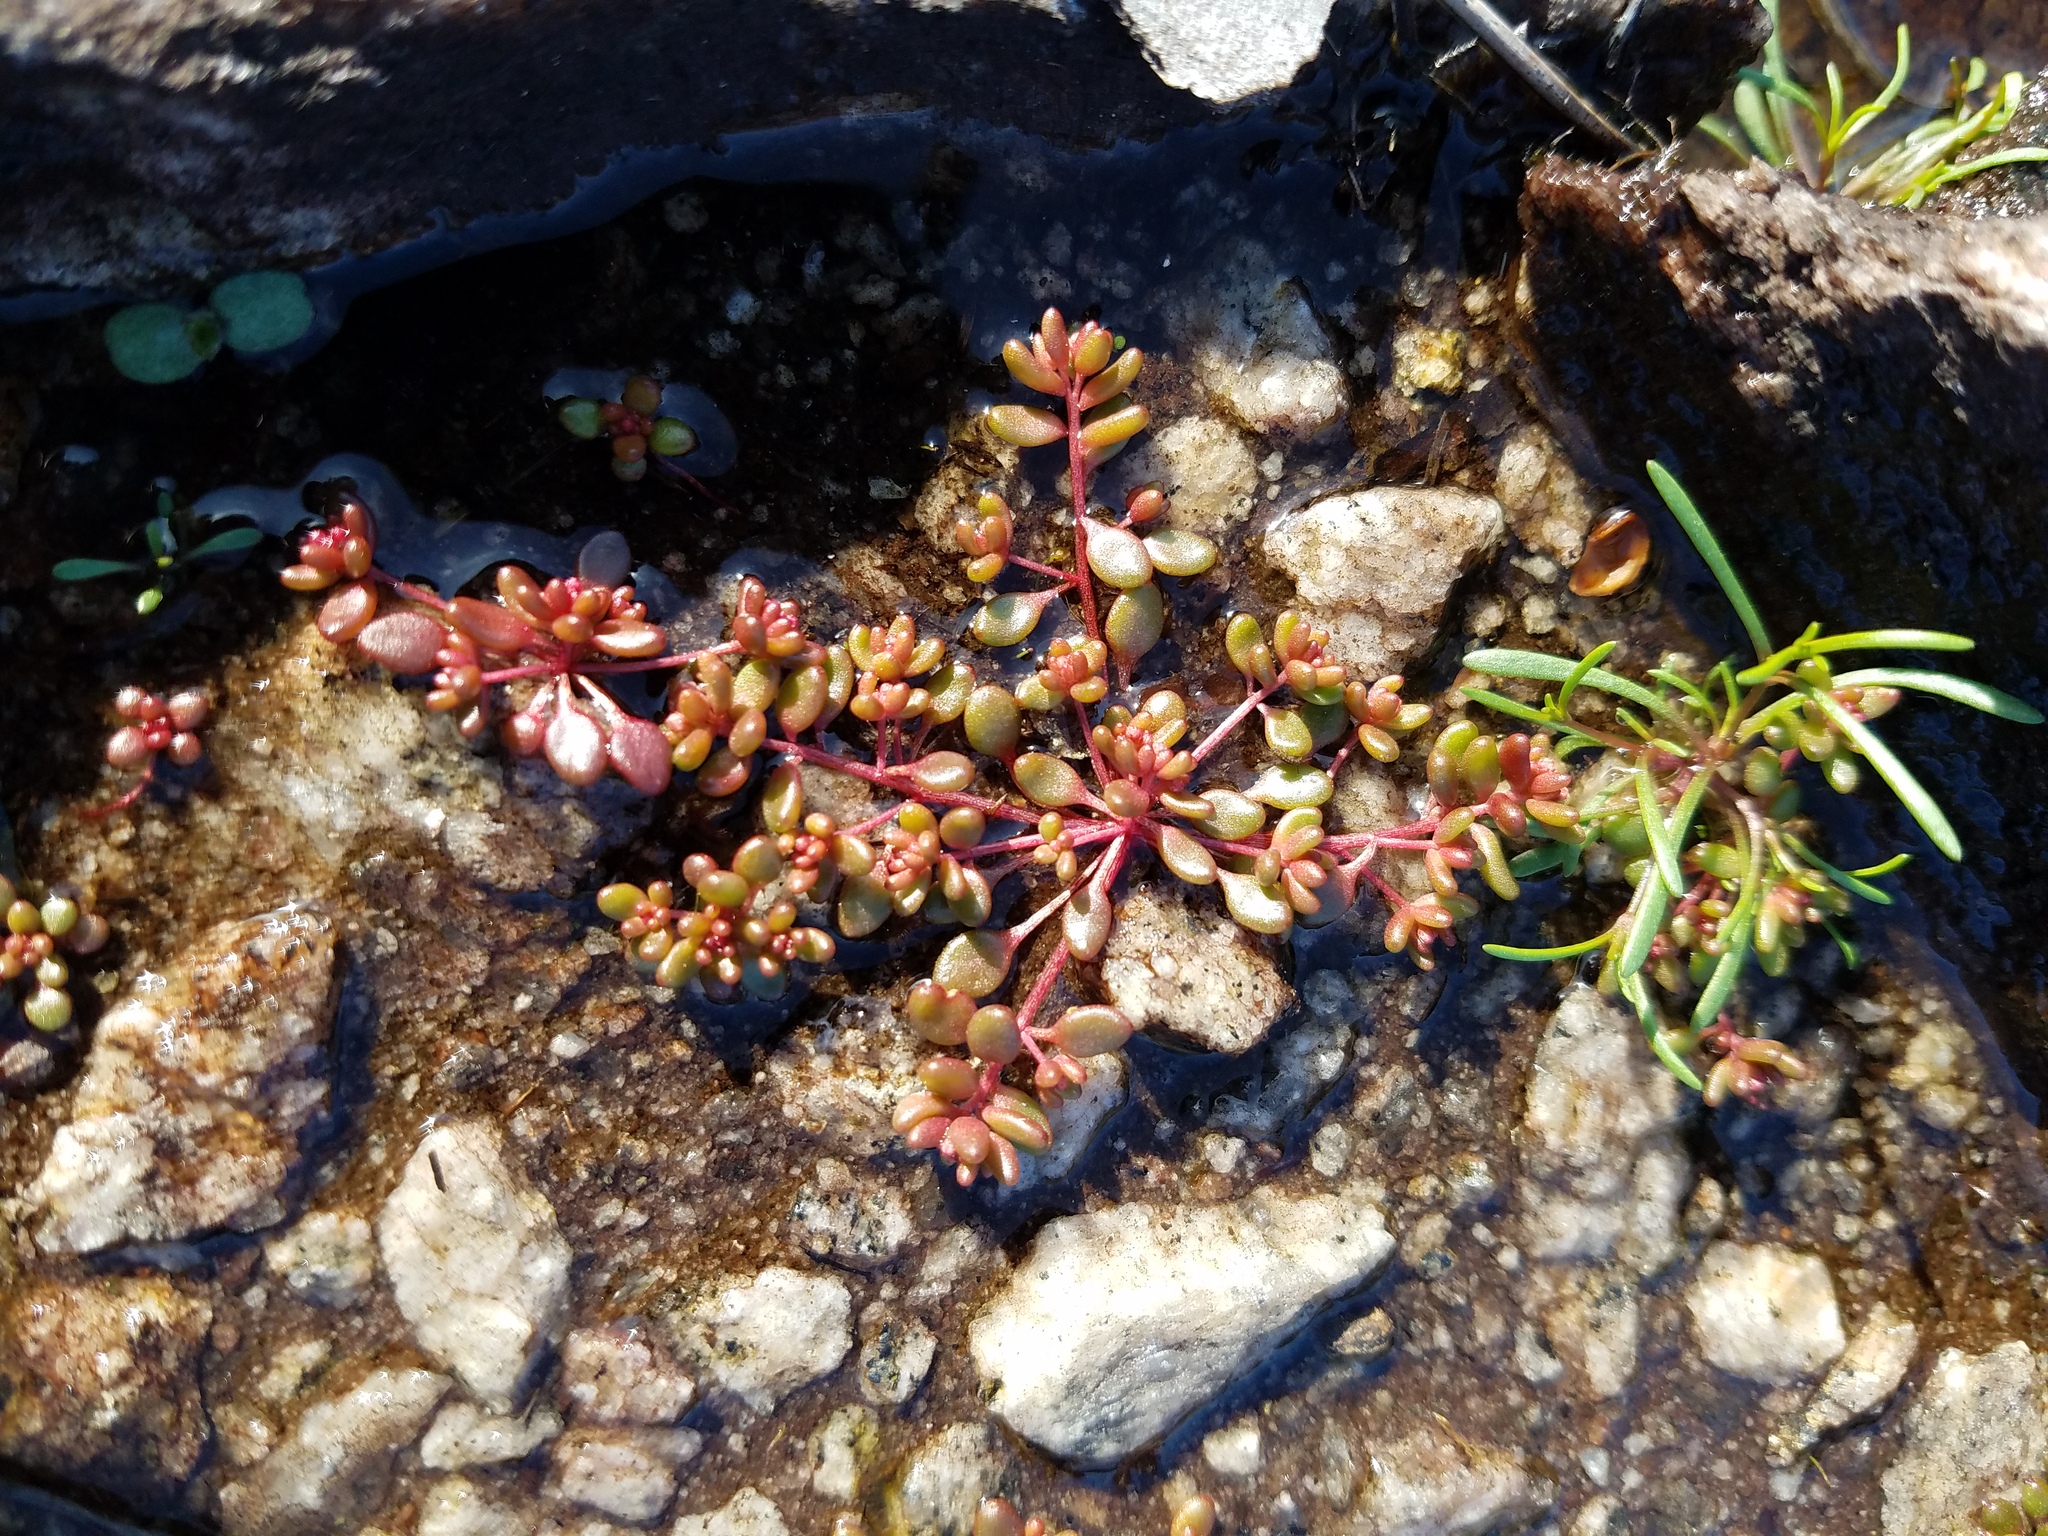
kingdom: Plantae
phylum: Tracheophyta
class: Magnoliopsida
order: Saxifragales
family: Crassulaceae
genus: Sedum
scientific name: Sedum smallii
